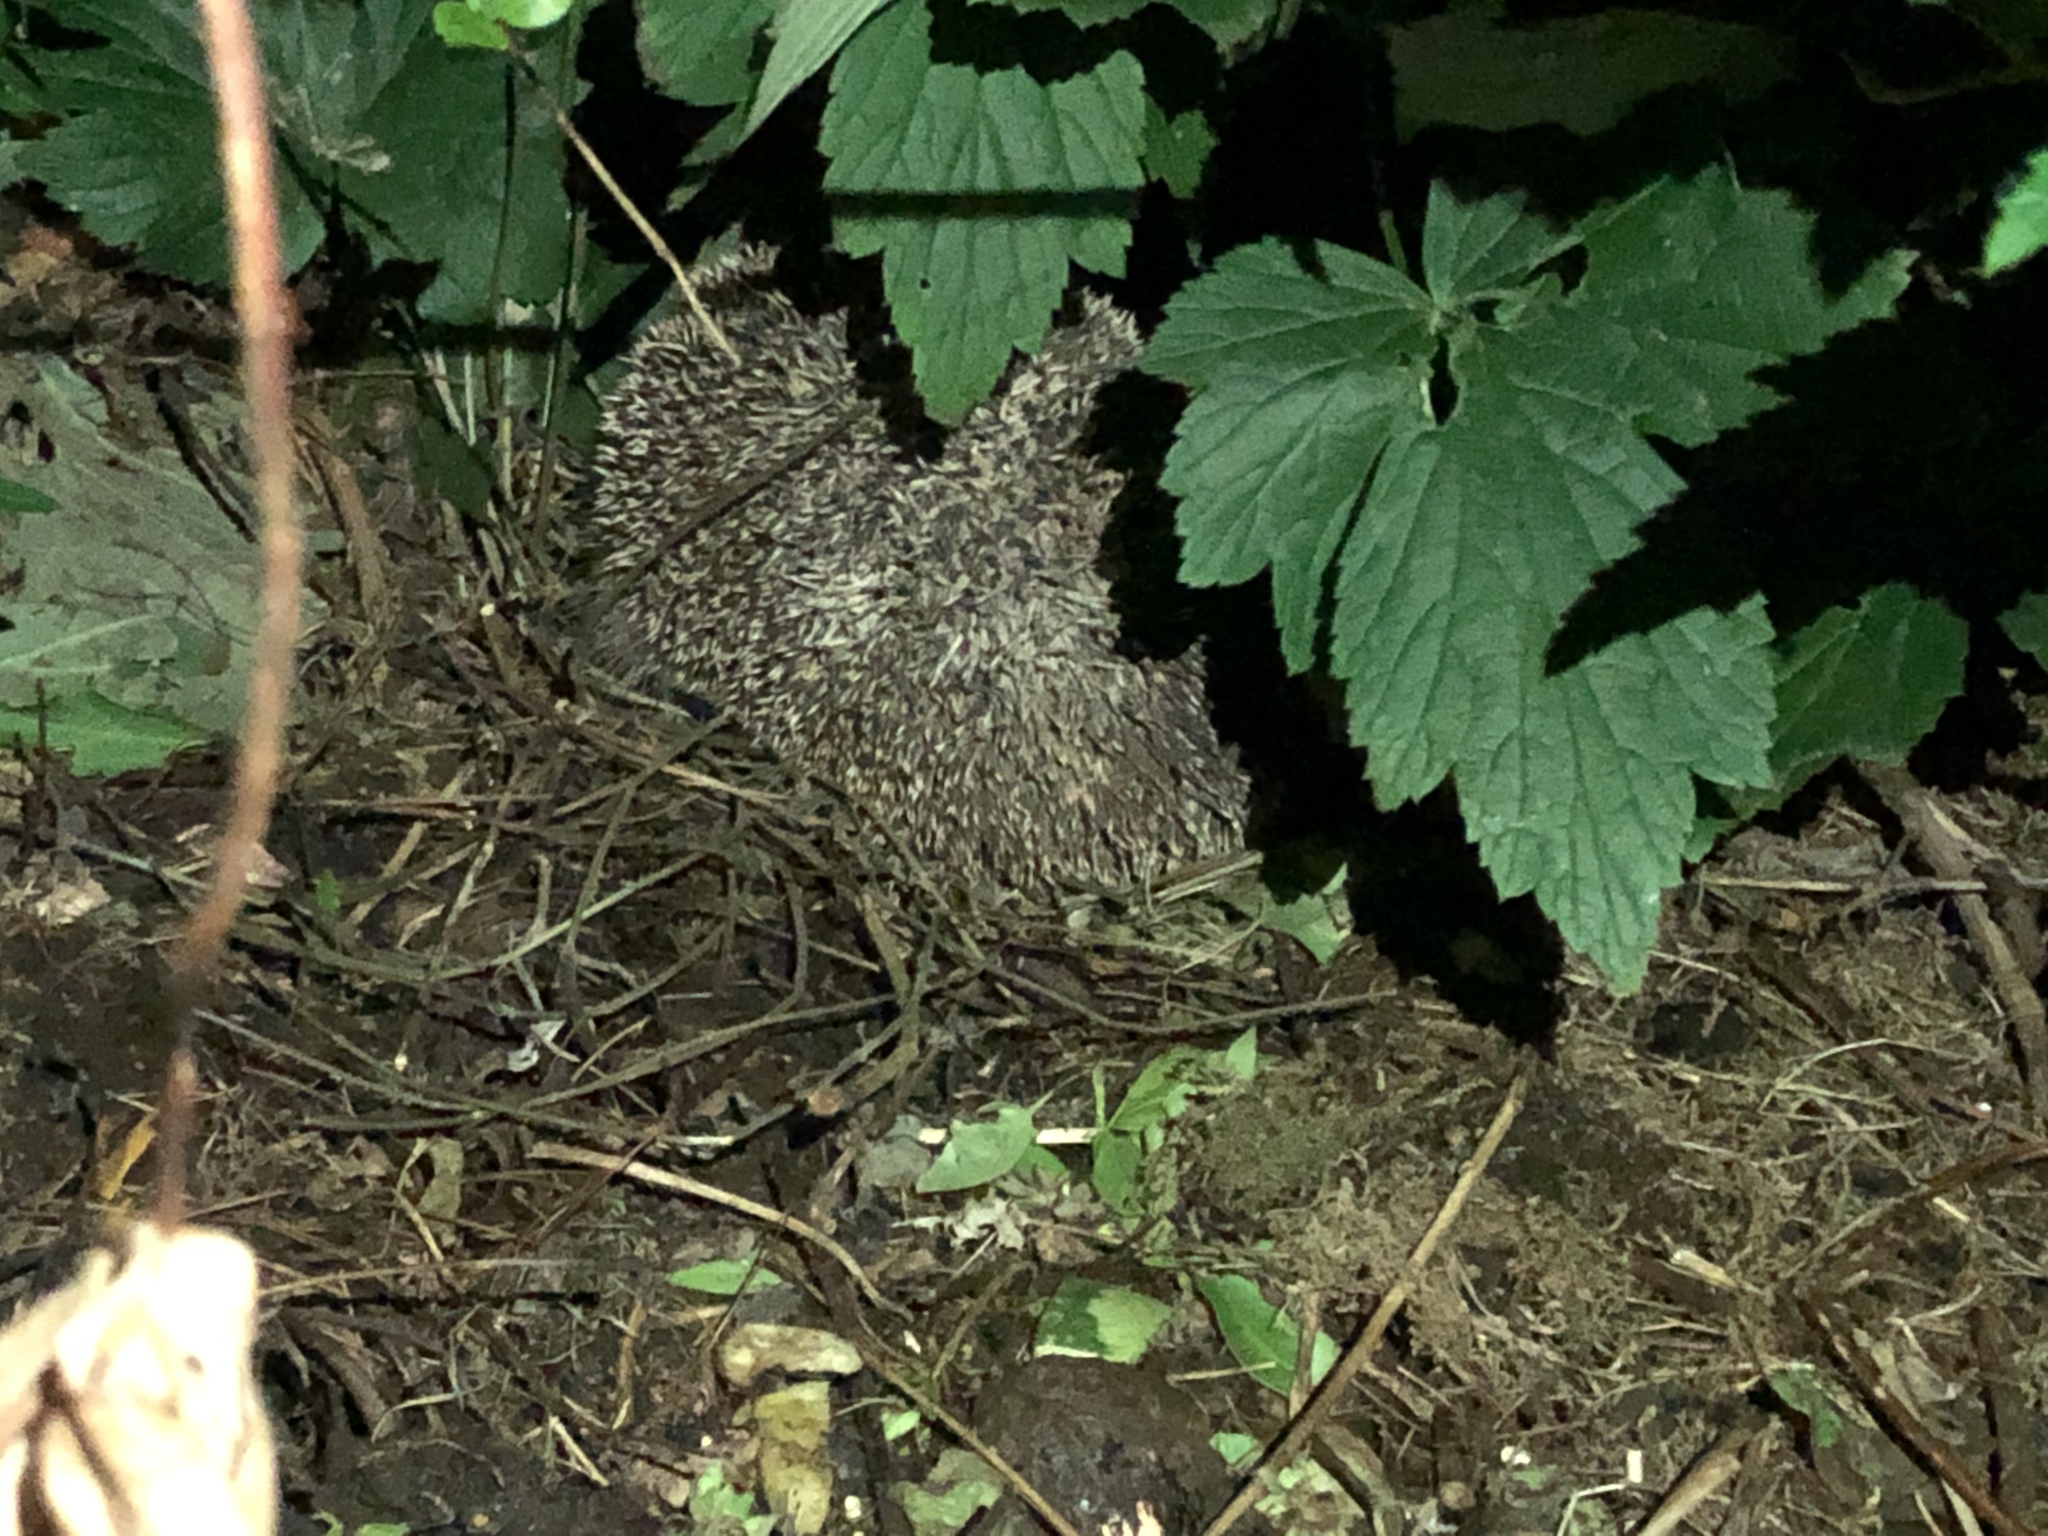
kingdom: Animalia
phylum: Chordata
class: Mammalia
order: Erinaceomorpha
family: Erinaceidae
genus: Erinaceus
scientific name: Erinaceus europaeus
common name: West european hedgehog
